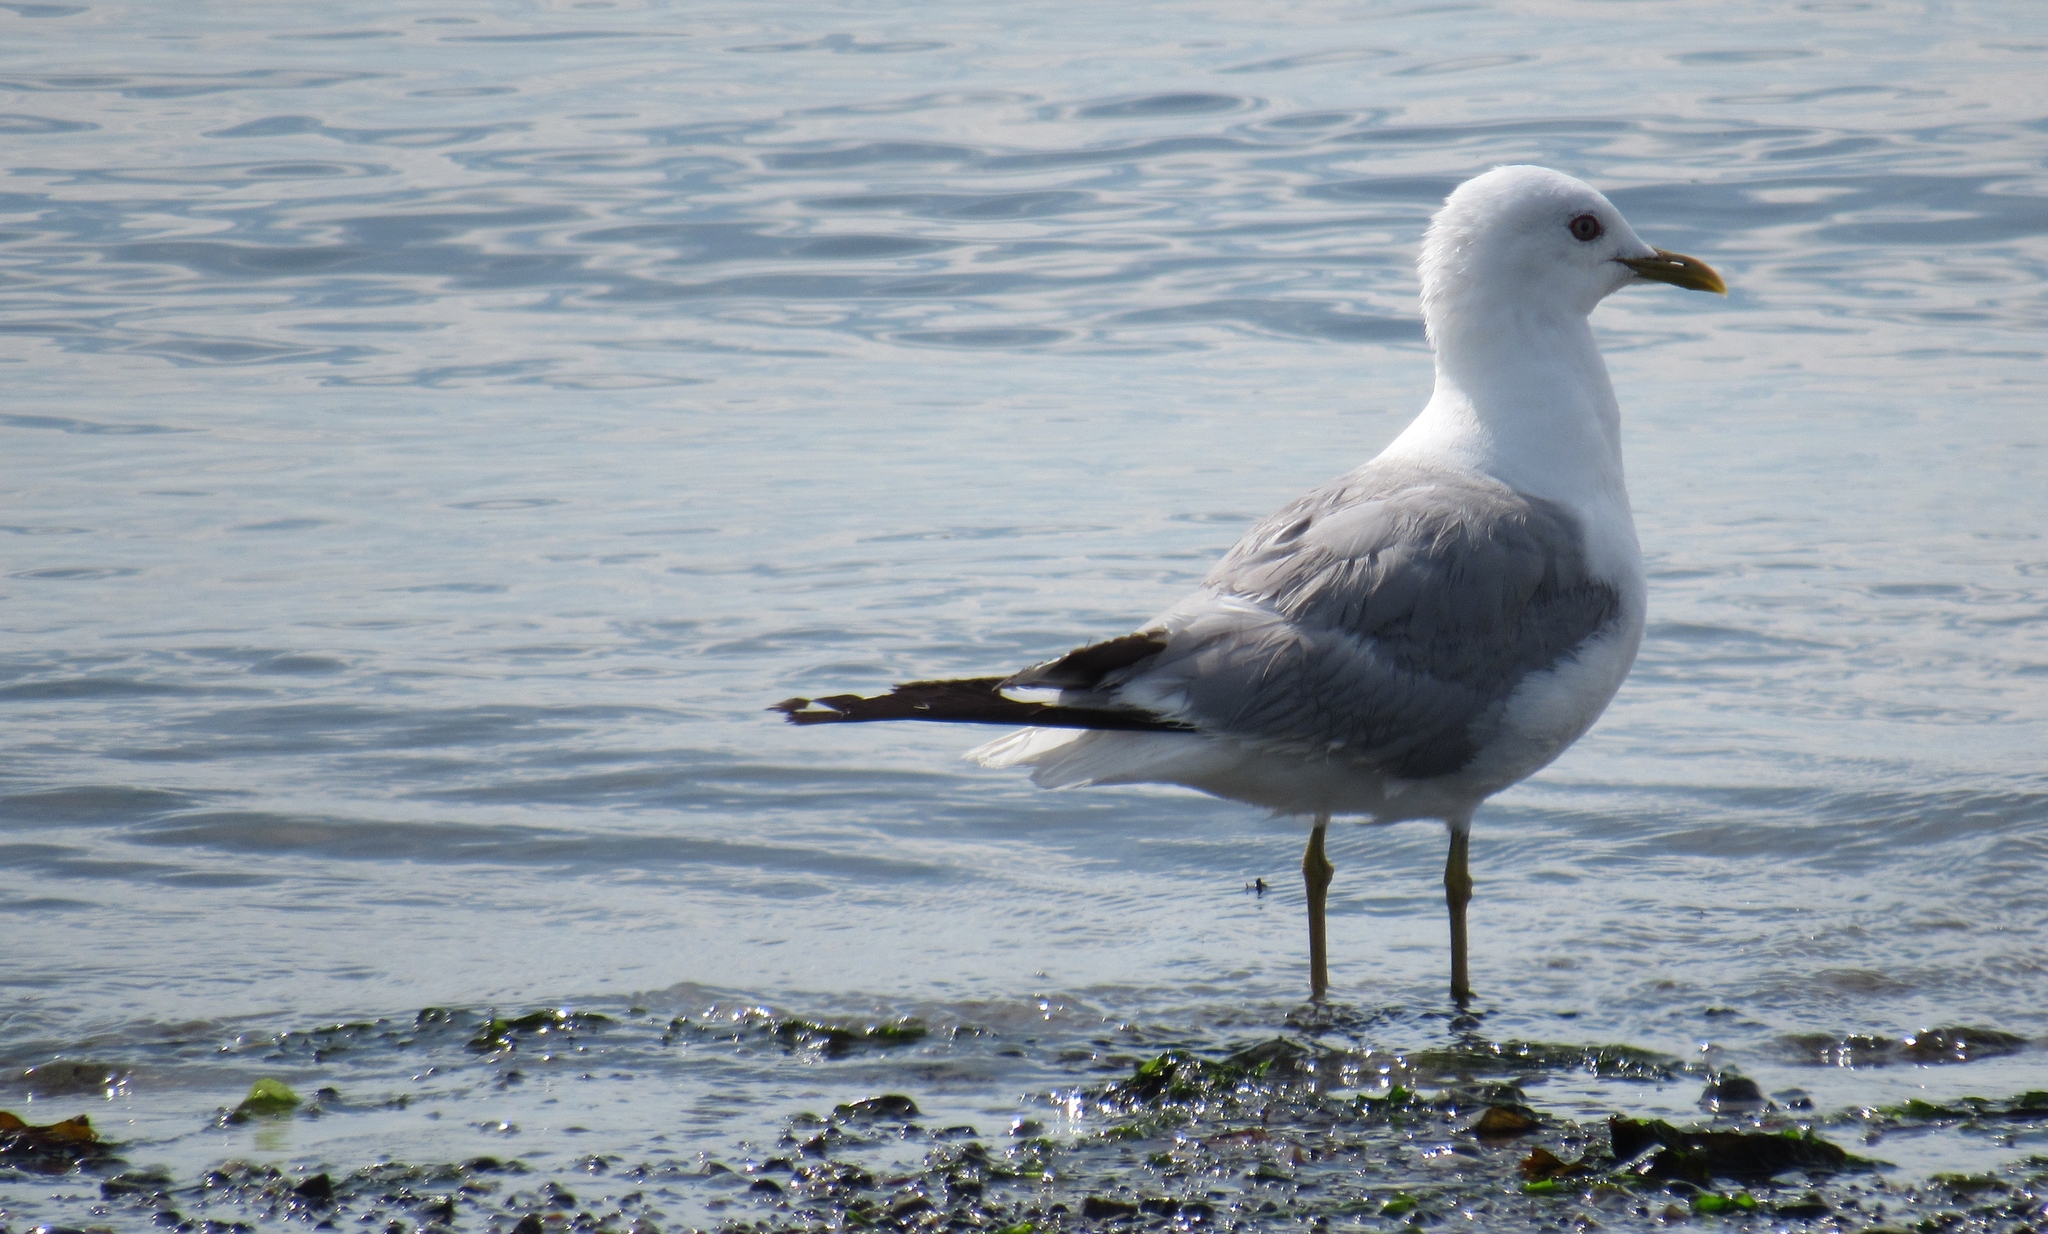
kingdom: Animalia
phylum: Chordata
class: Aves
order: Charadriiformes
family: Laridae
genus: Larus
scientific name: Larus brachyrhynchus
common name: Short-billed gull
